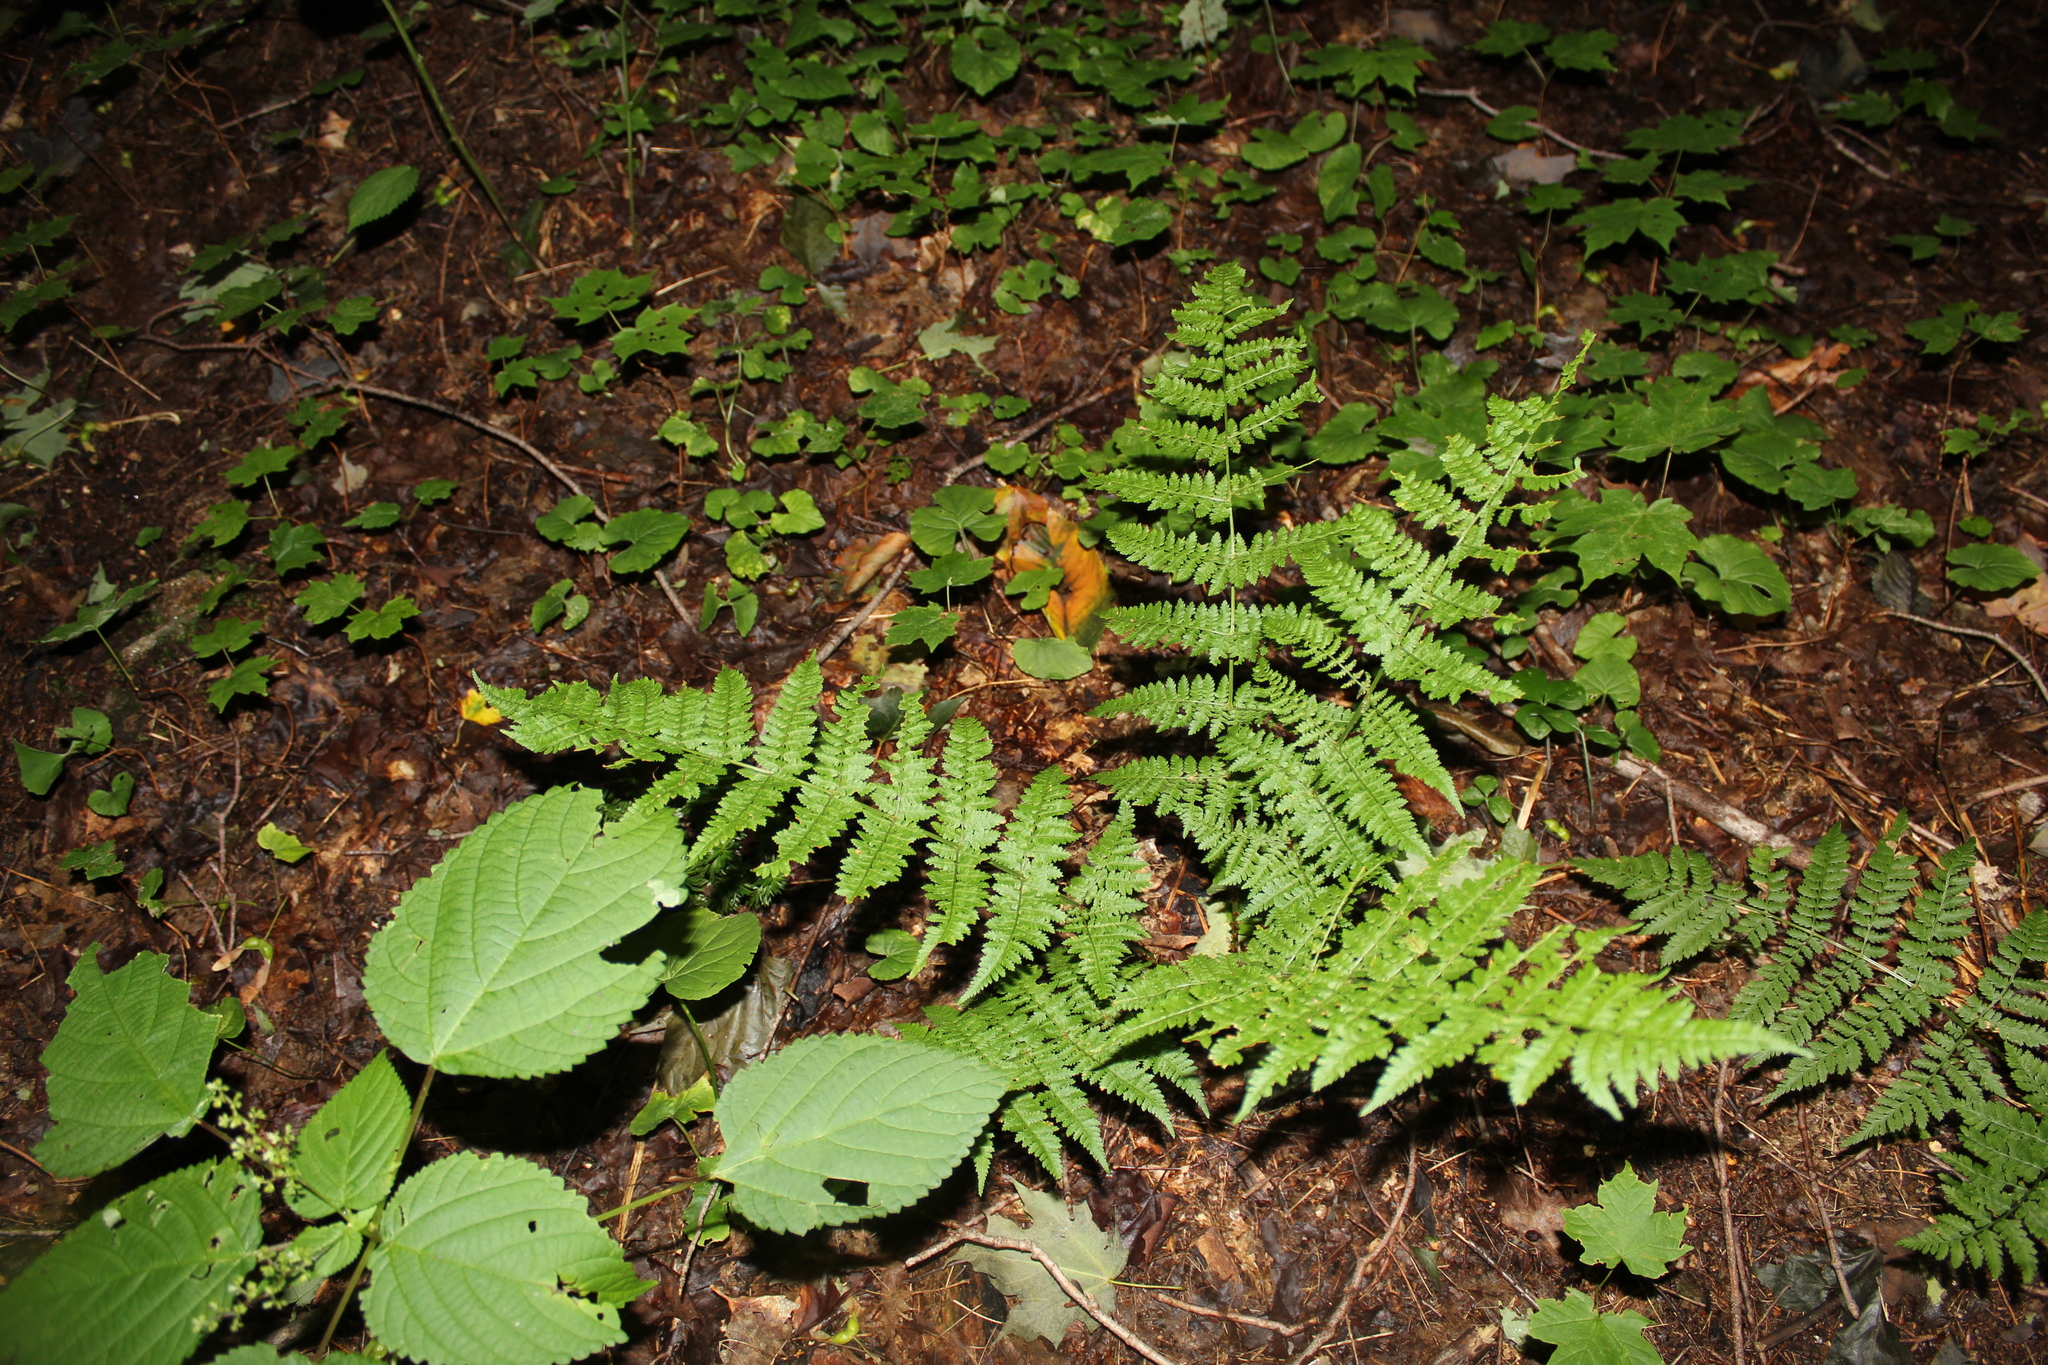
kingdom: Plantae
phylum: Tracheophyta
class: Polypodiopsida
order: Polypodiales
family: Dryopteridaceae
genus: Dryopteris
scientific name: Dryopteris intermedia
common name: Evergreen wood fern
